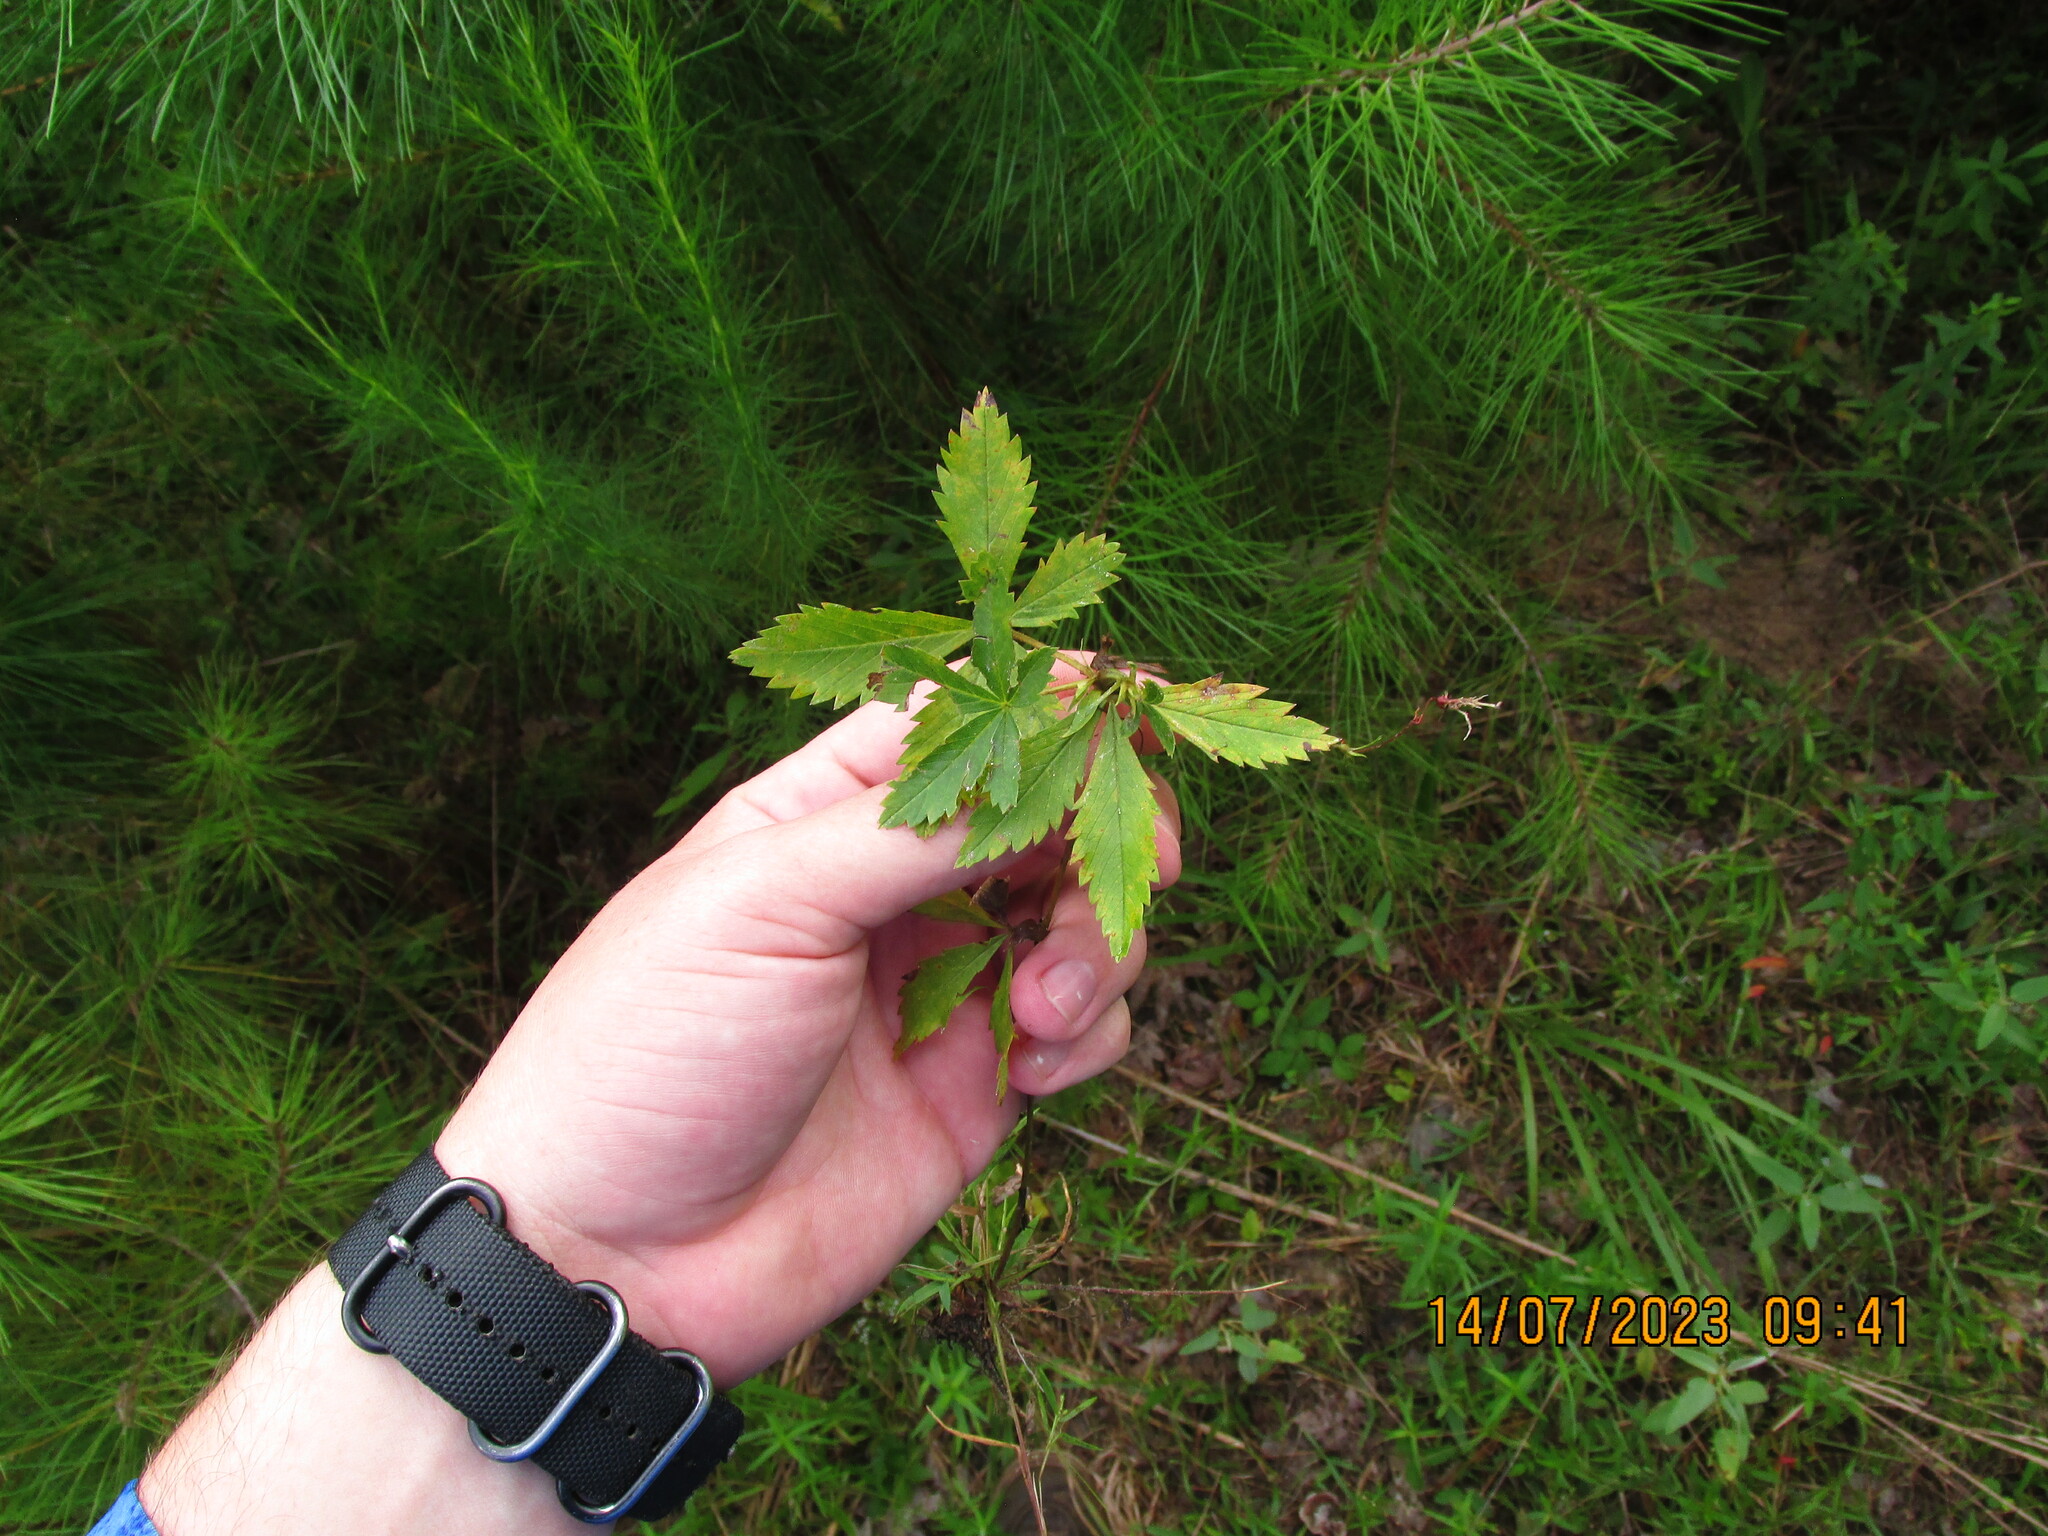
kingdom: Plantae
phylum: Tracheophyta
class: Magnoliopsida
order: Rosales
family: Rosaceae
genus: Potentilla
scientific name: Potentilla simplex
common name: Old field cinquefoil
